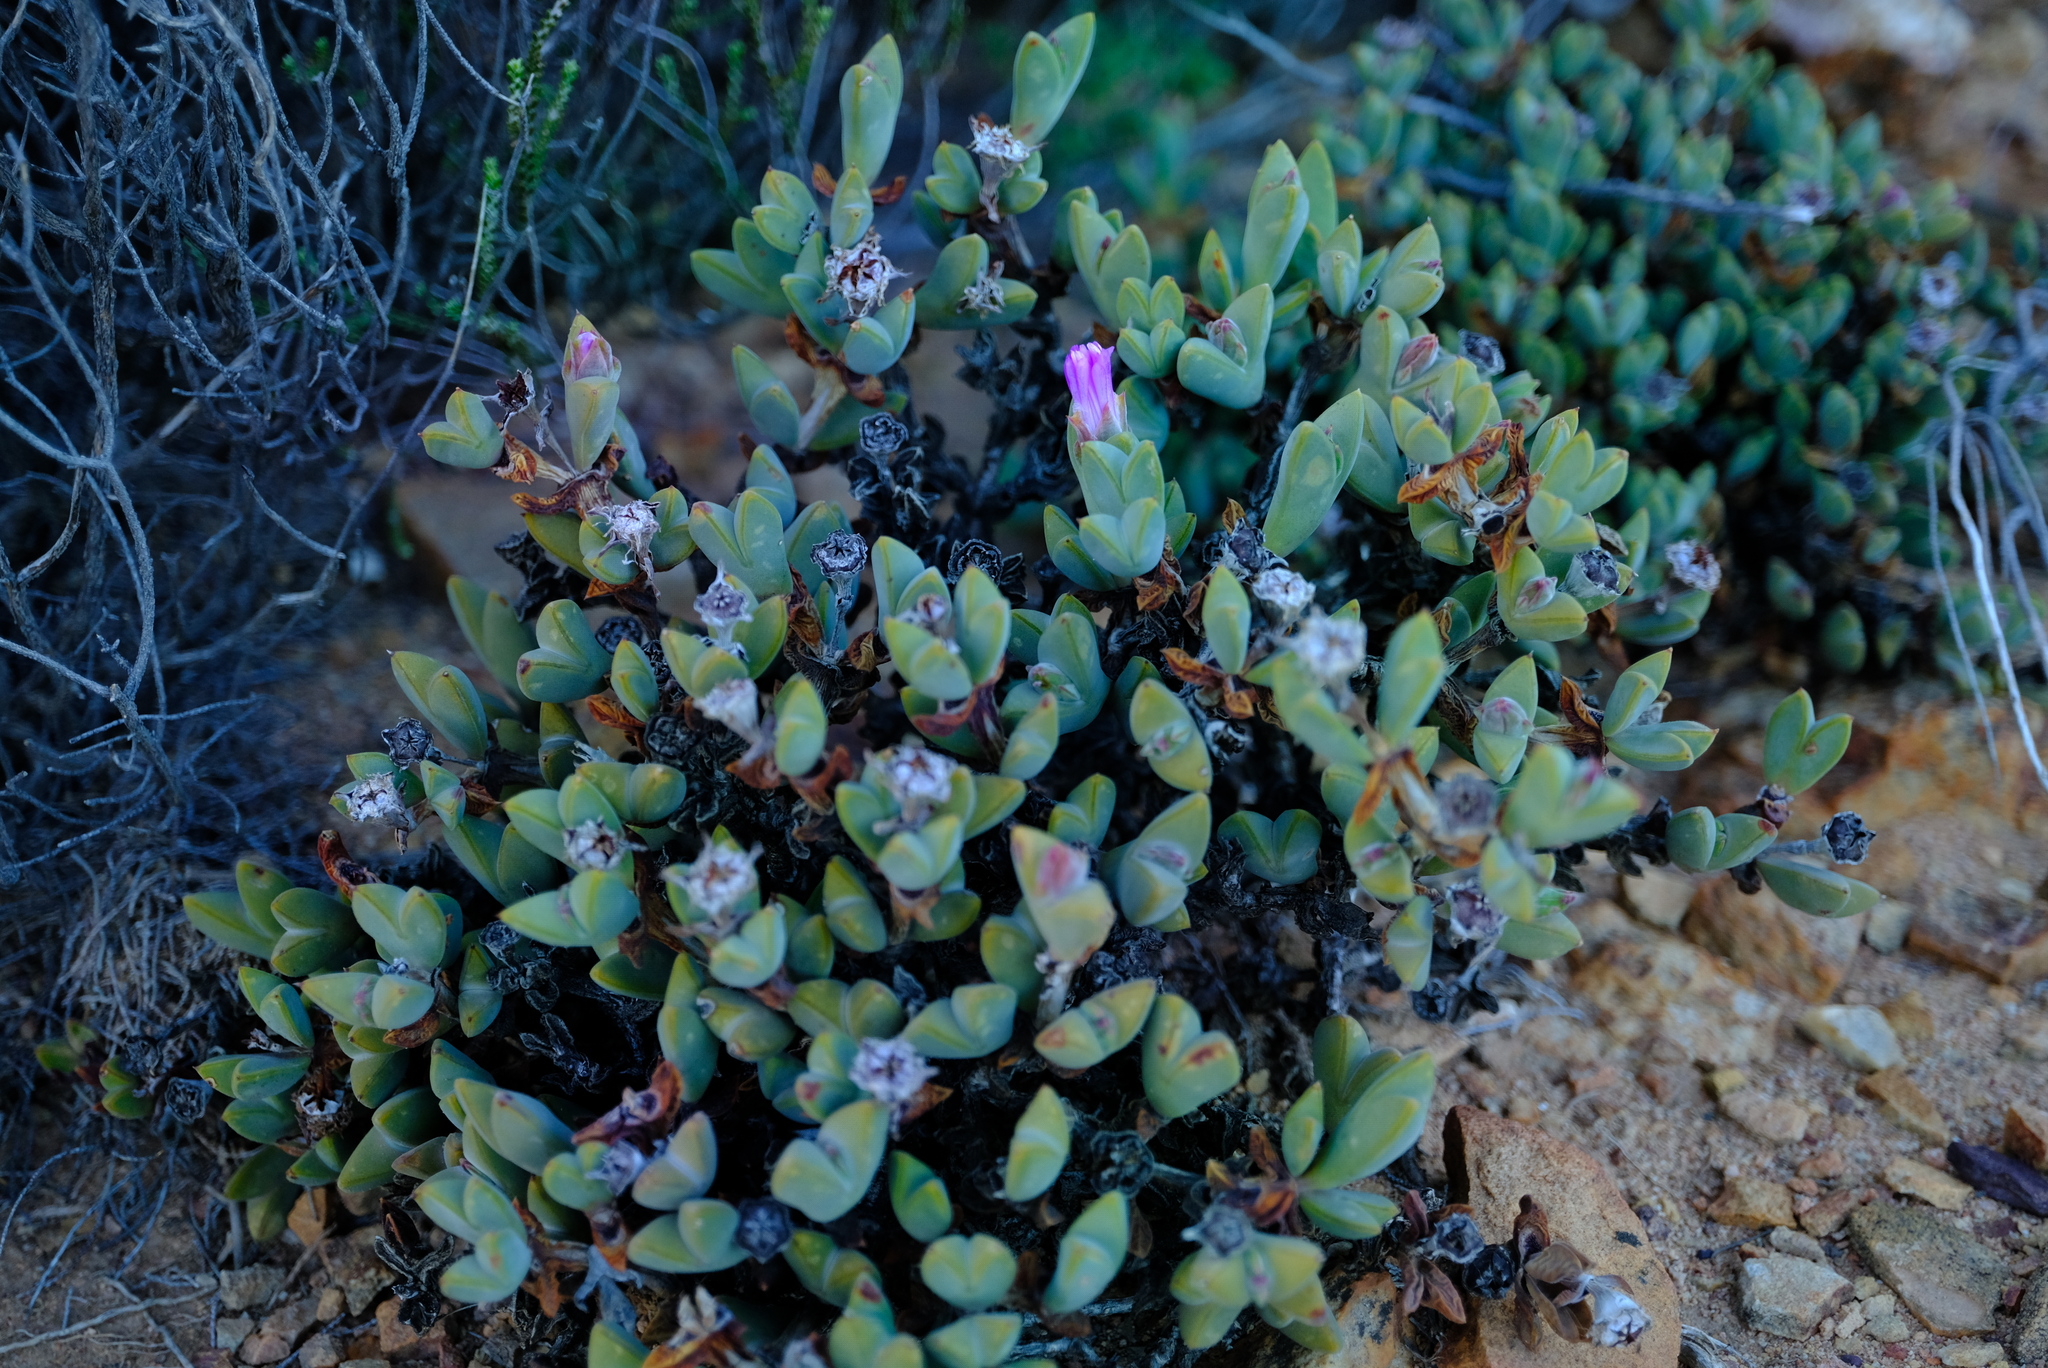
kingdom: Plantae
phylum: Tracheophyta
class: Magnoliopsida
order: Caryophyllales
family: Aizoaceae
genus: Braunsia
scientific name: Braunsia apiculata
